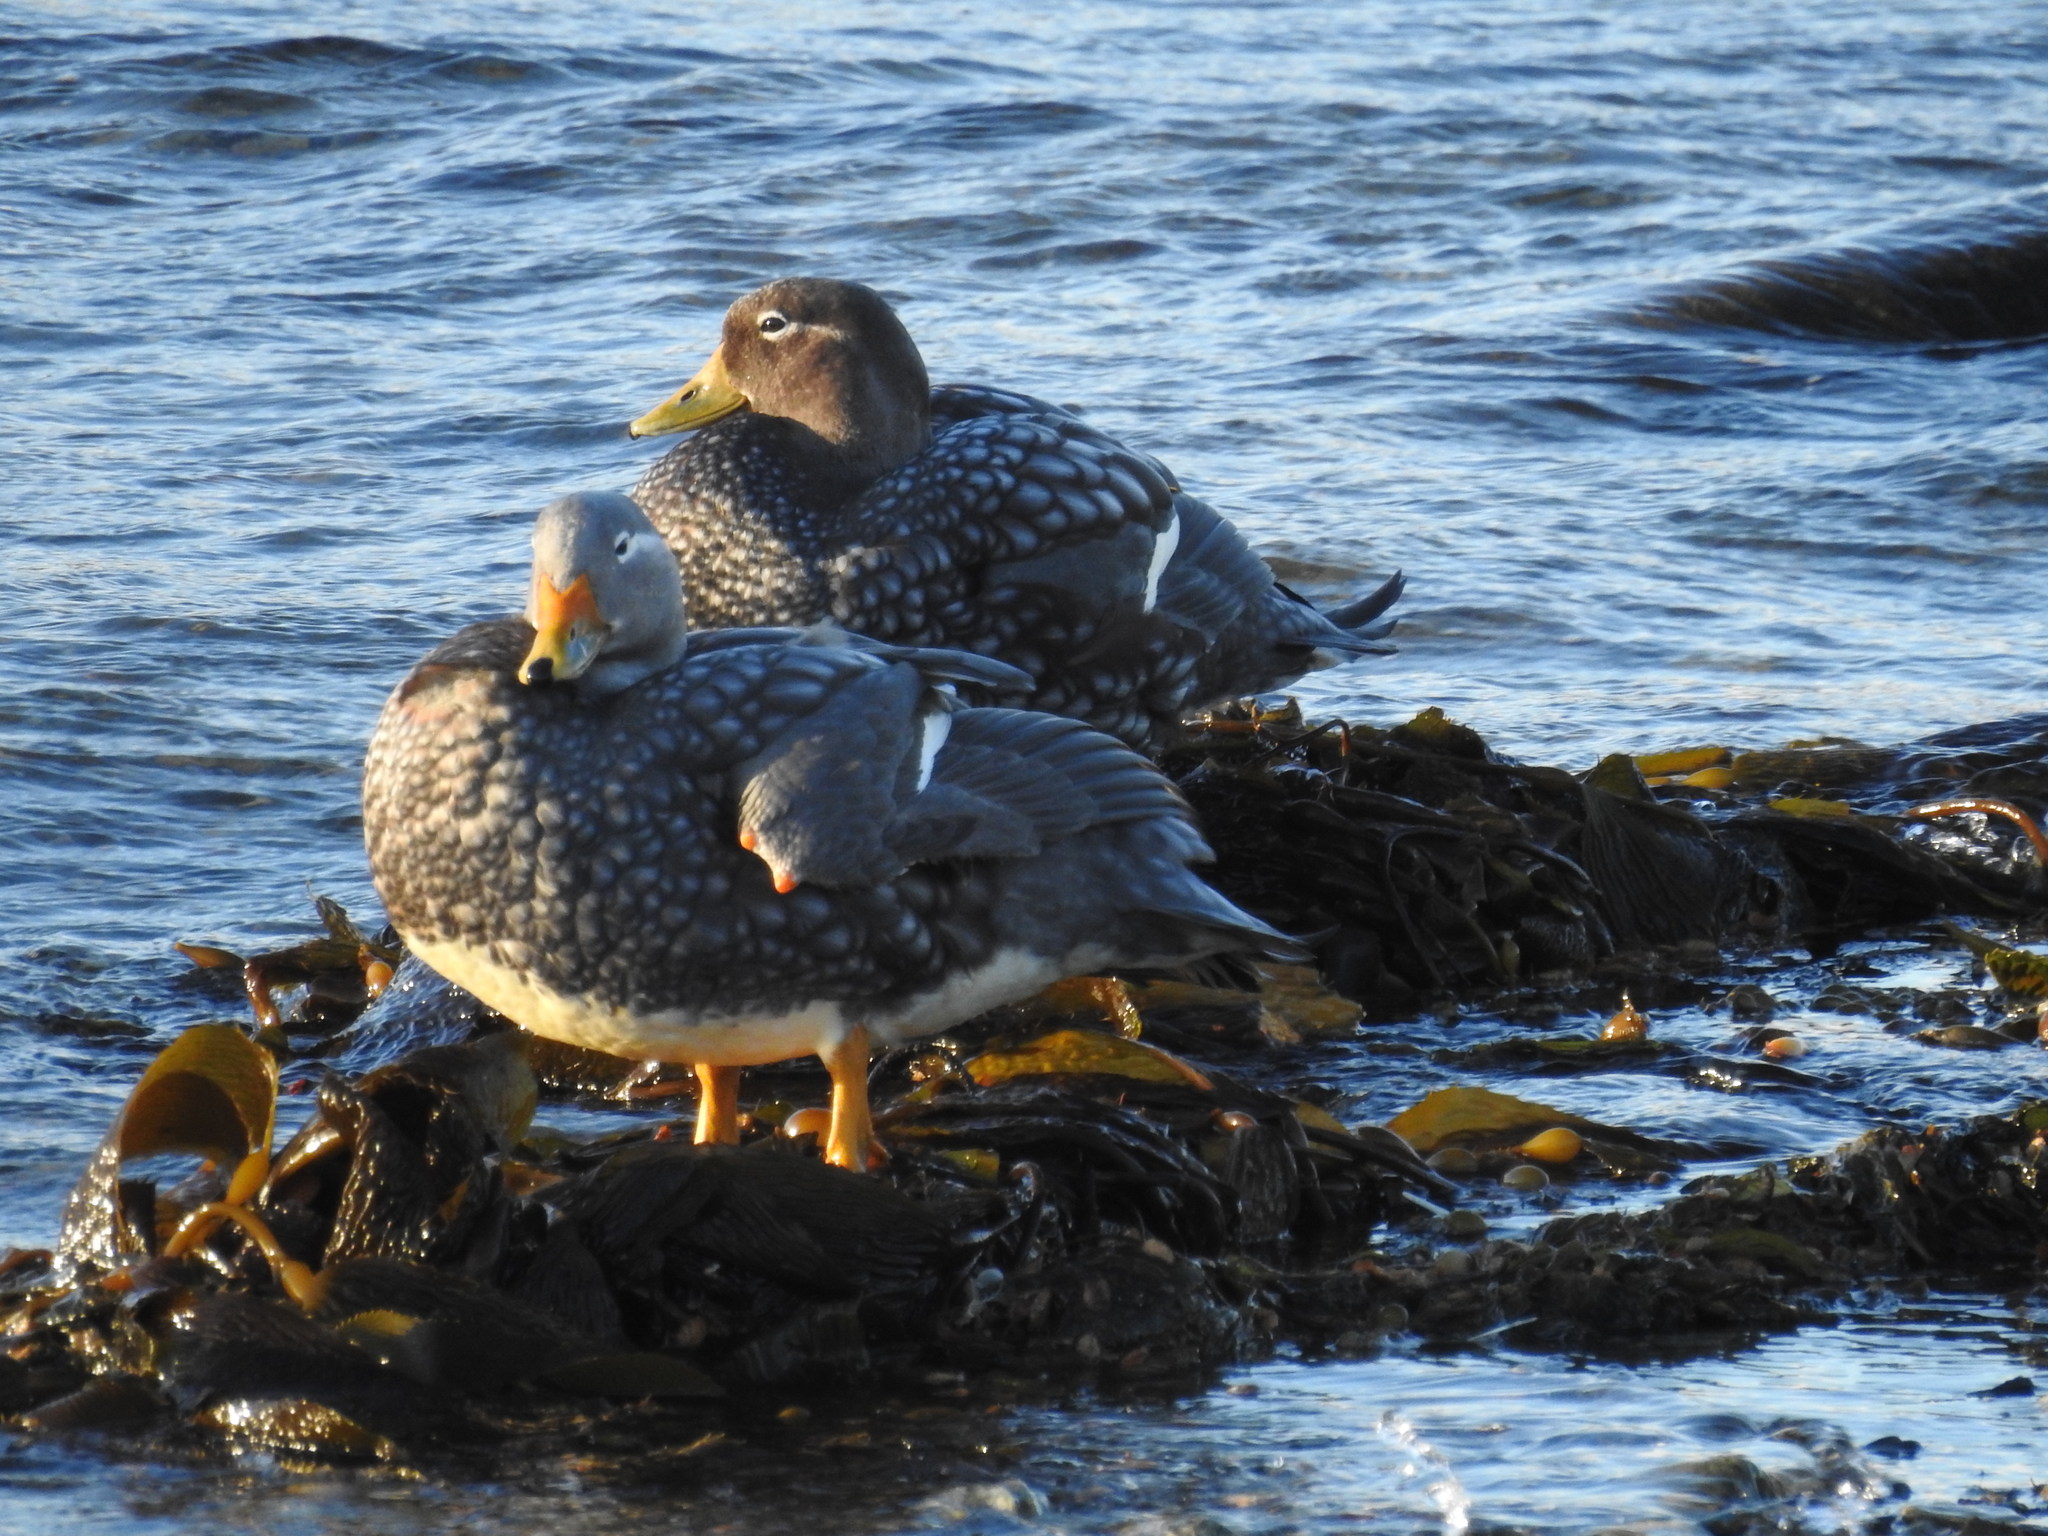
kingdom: Animalia
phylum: Chordata
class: Aves
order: Anseriformes
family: Anatidae
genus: Tachyeres
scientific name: Tachyeres patachonicus
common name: Flying steamer duck
